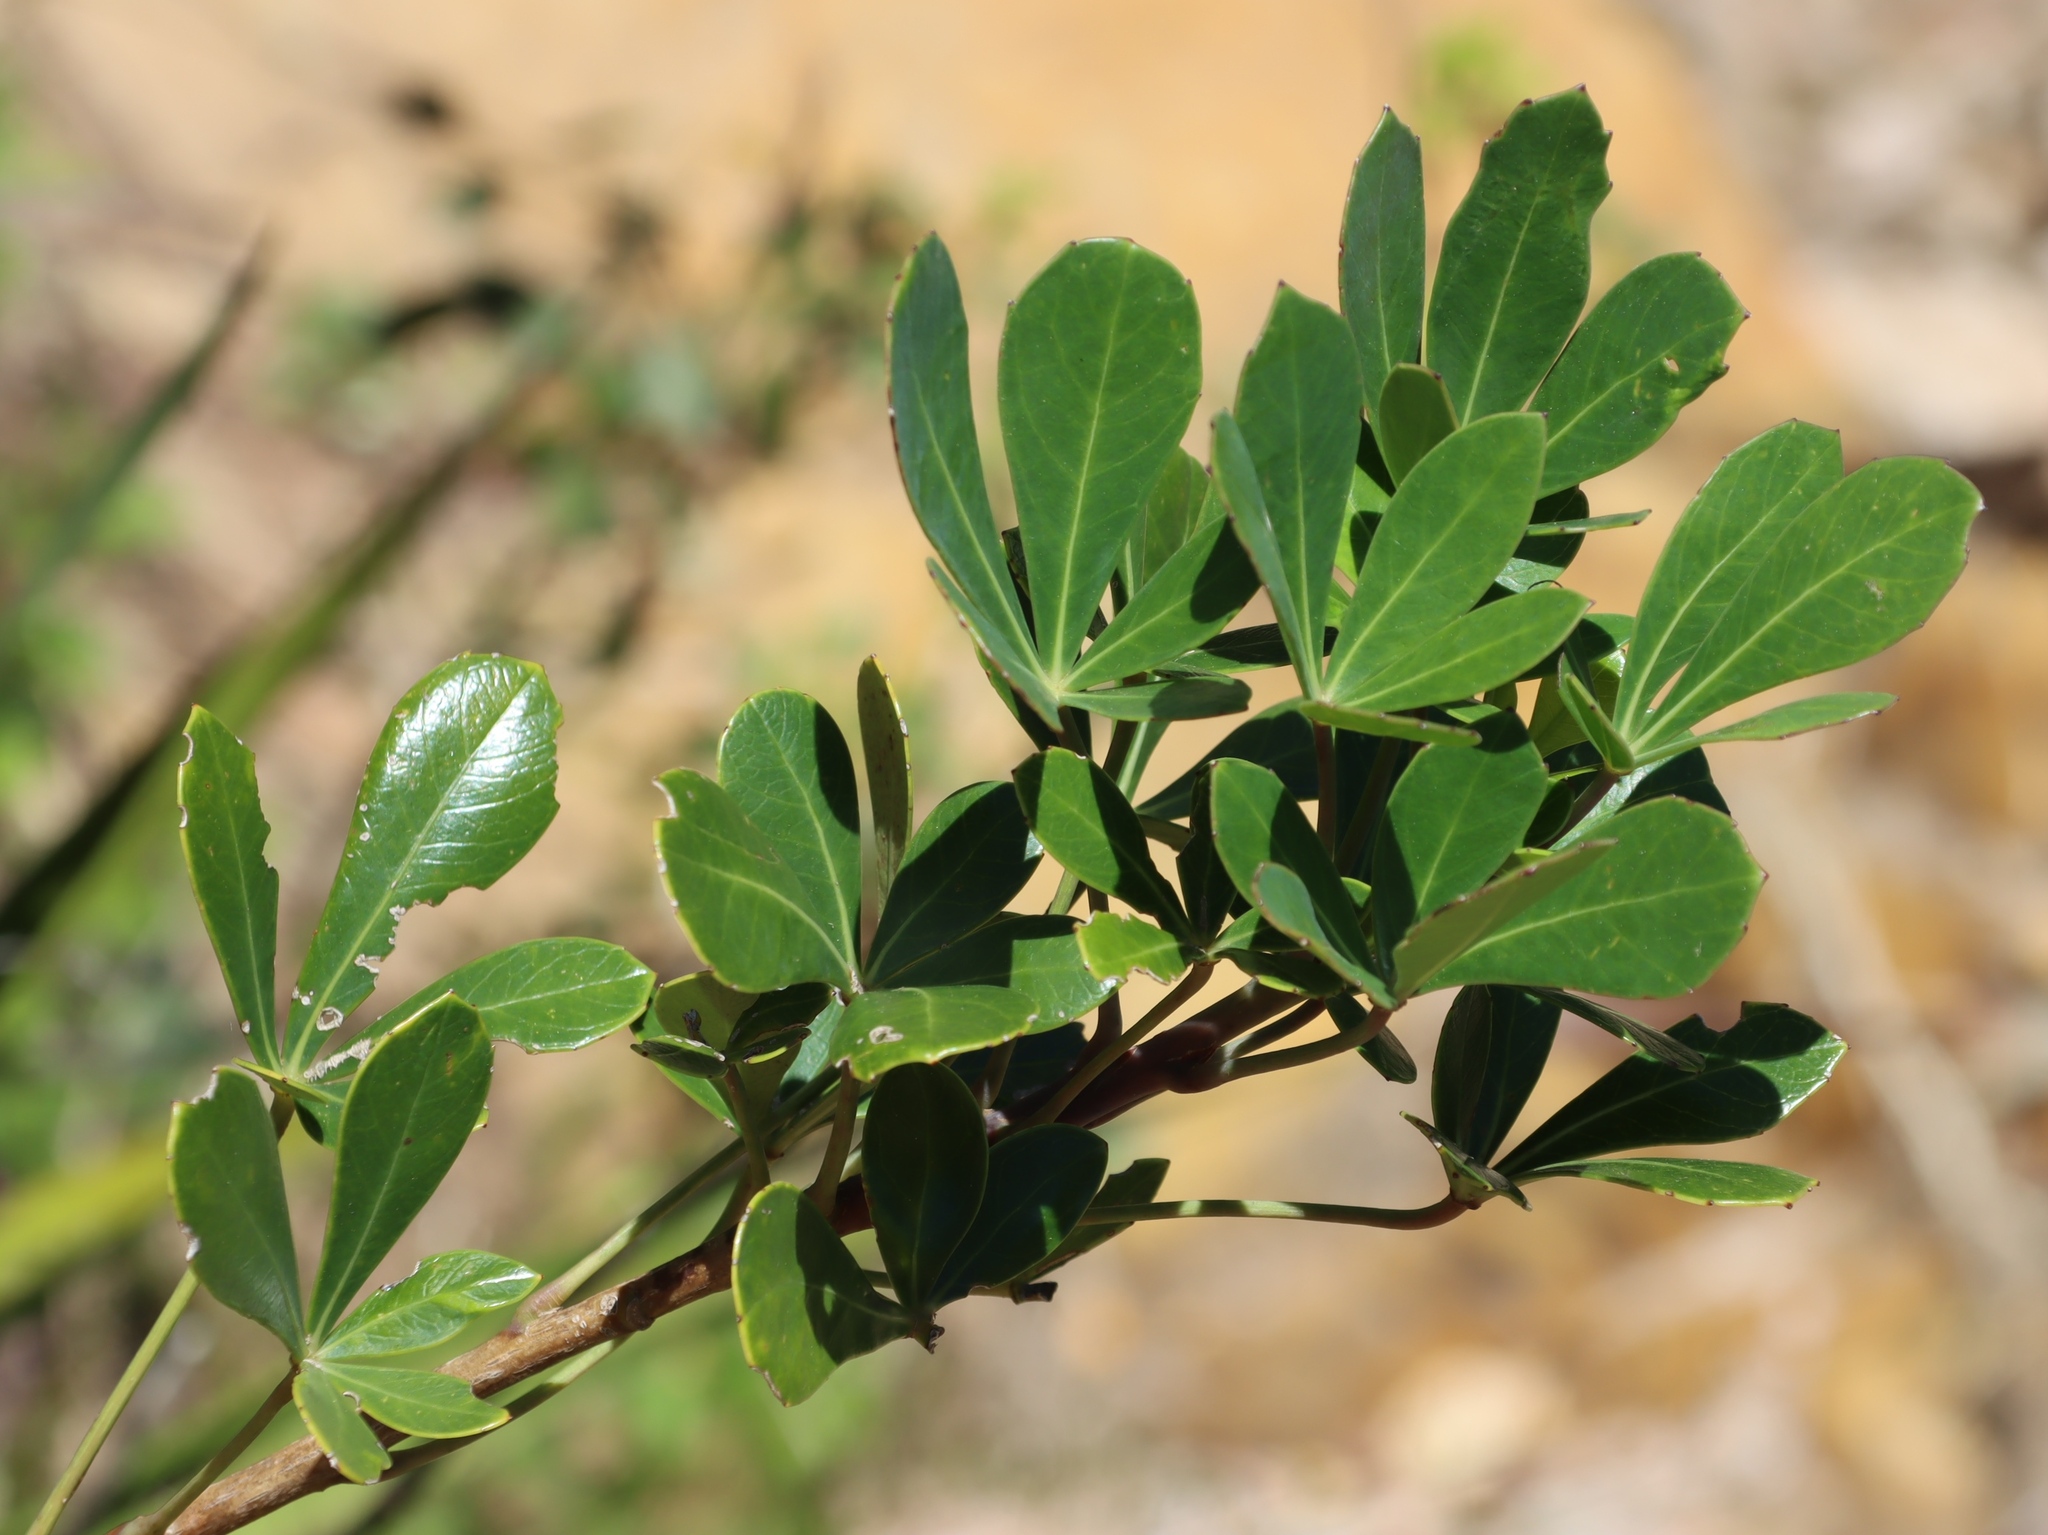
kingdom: Plantae
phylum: Tracheophyta
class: Magnoliopsida
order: Apiales
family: Araliaceae
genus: Cussonia
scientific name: Cussonia thyrsiflora
